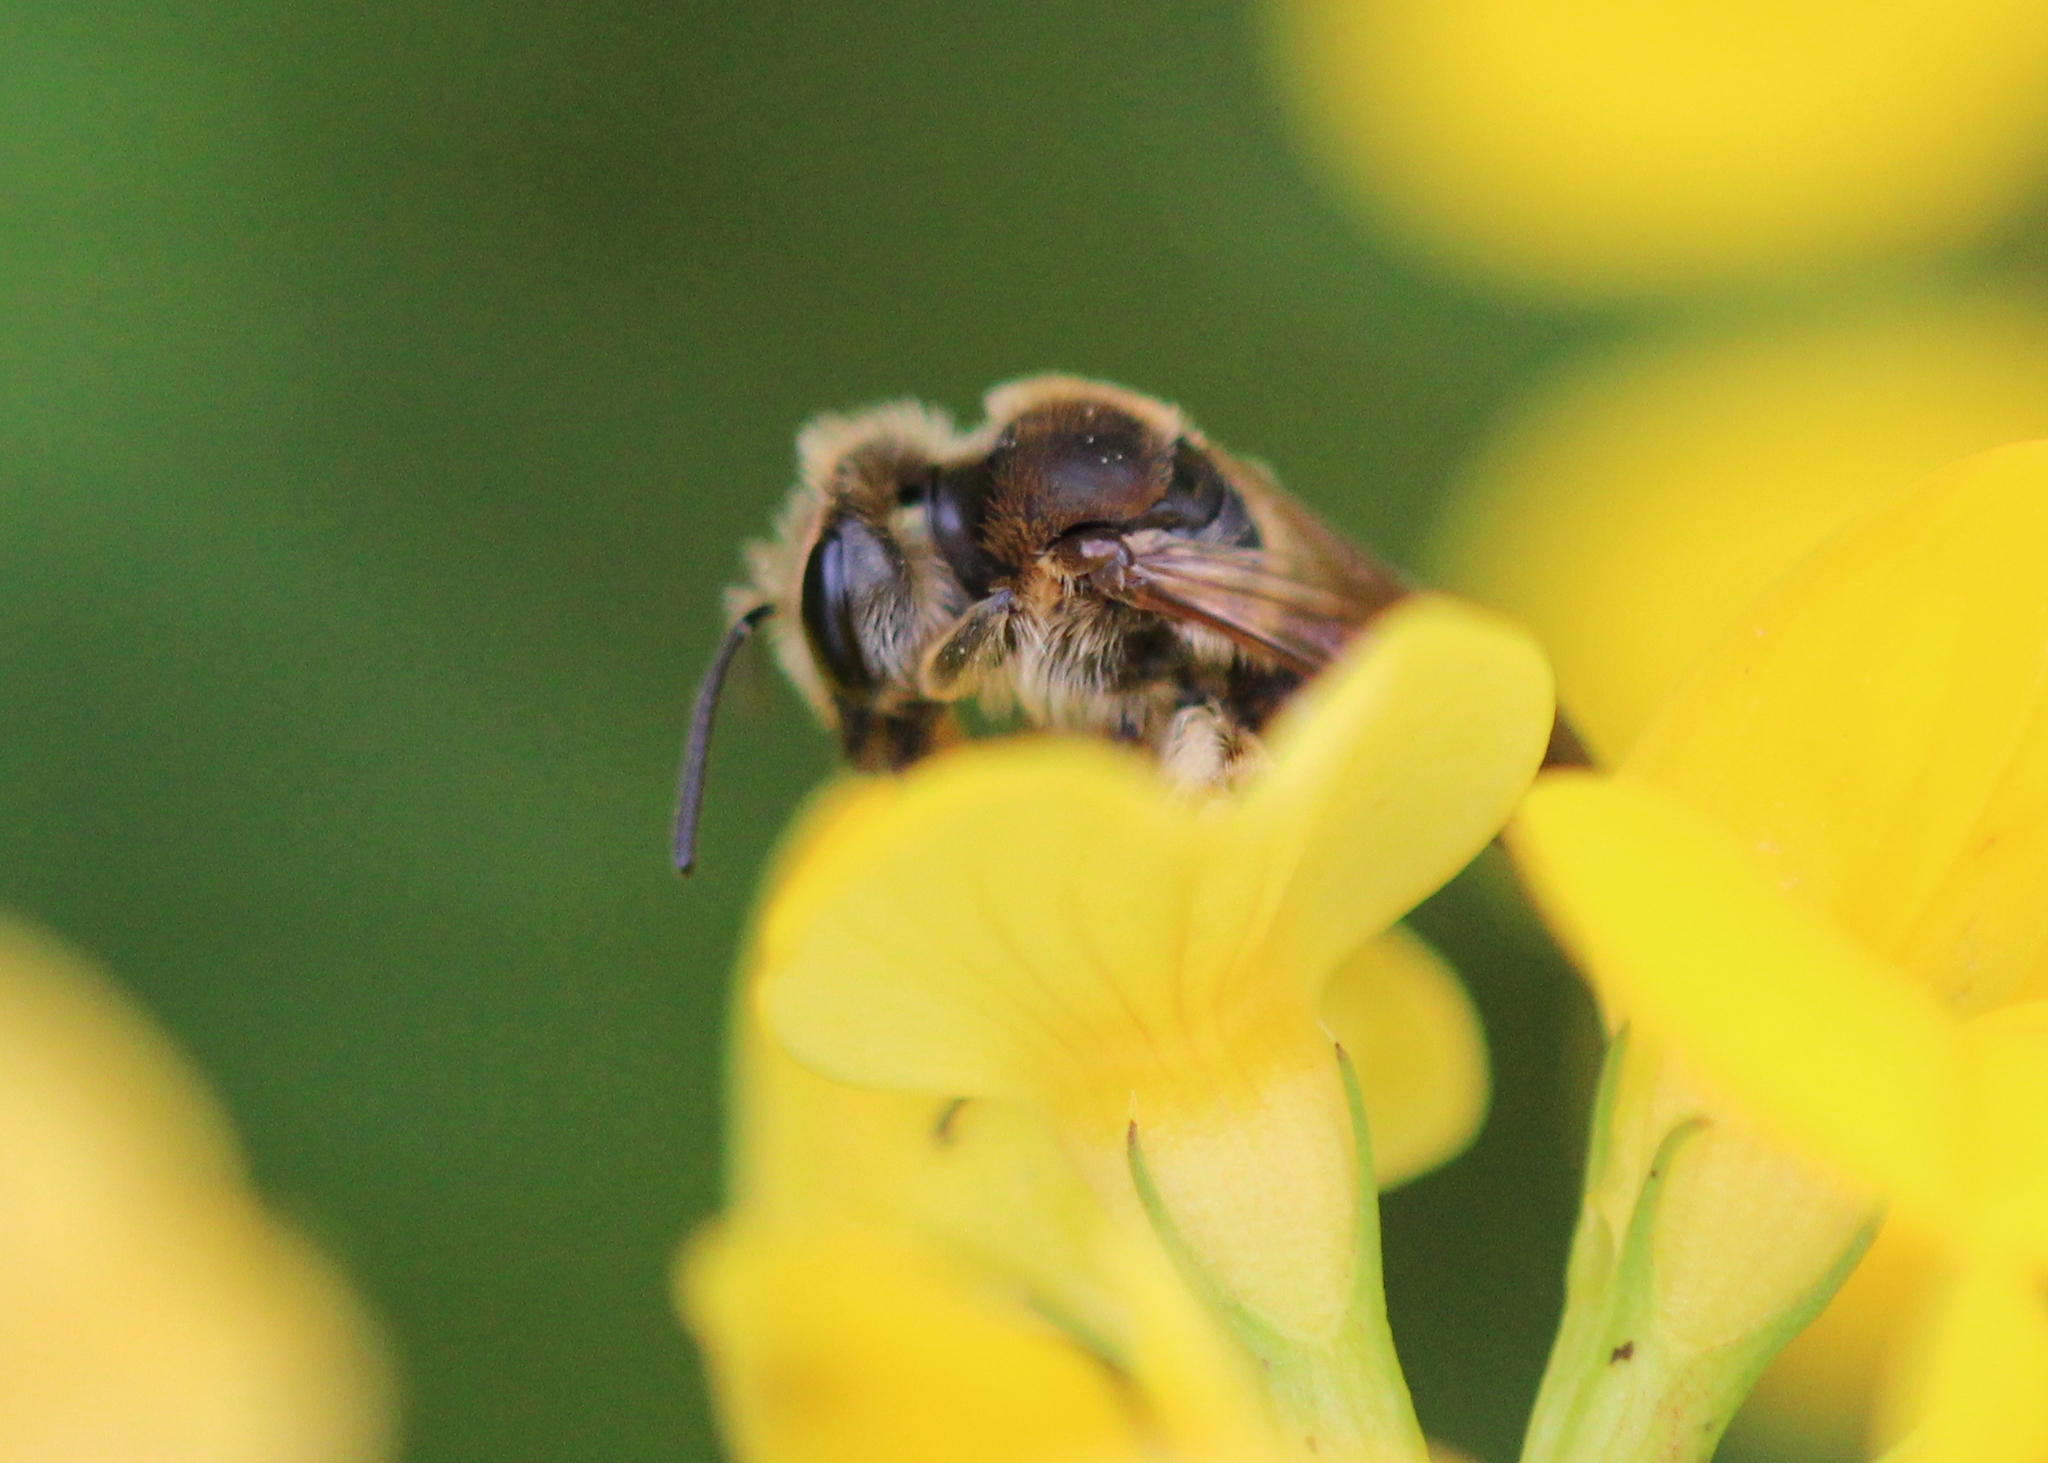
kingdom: Animalia
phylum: Arthropoda
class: Insecta
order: Hymenoptera
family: Andrenidae
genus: Andrena
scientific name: Andrena wilkella
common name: Wilke's mining bee
